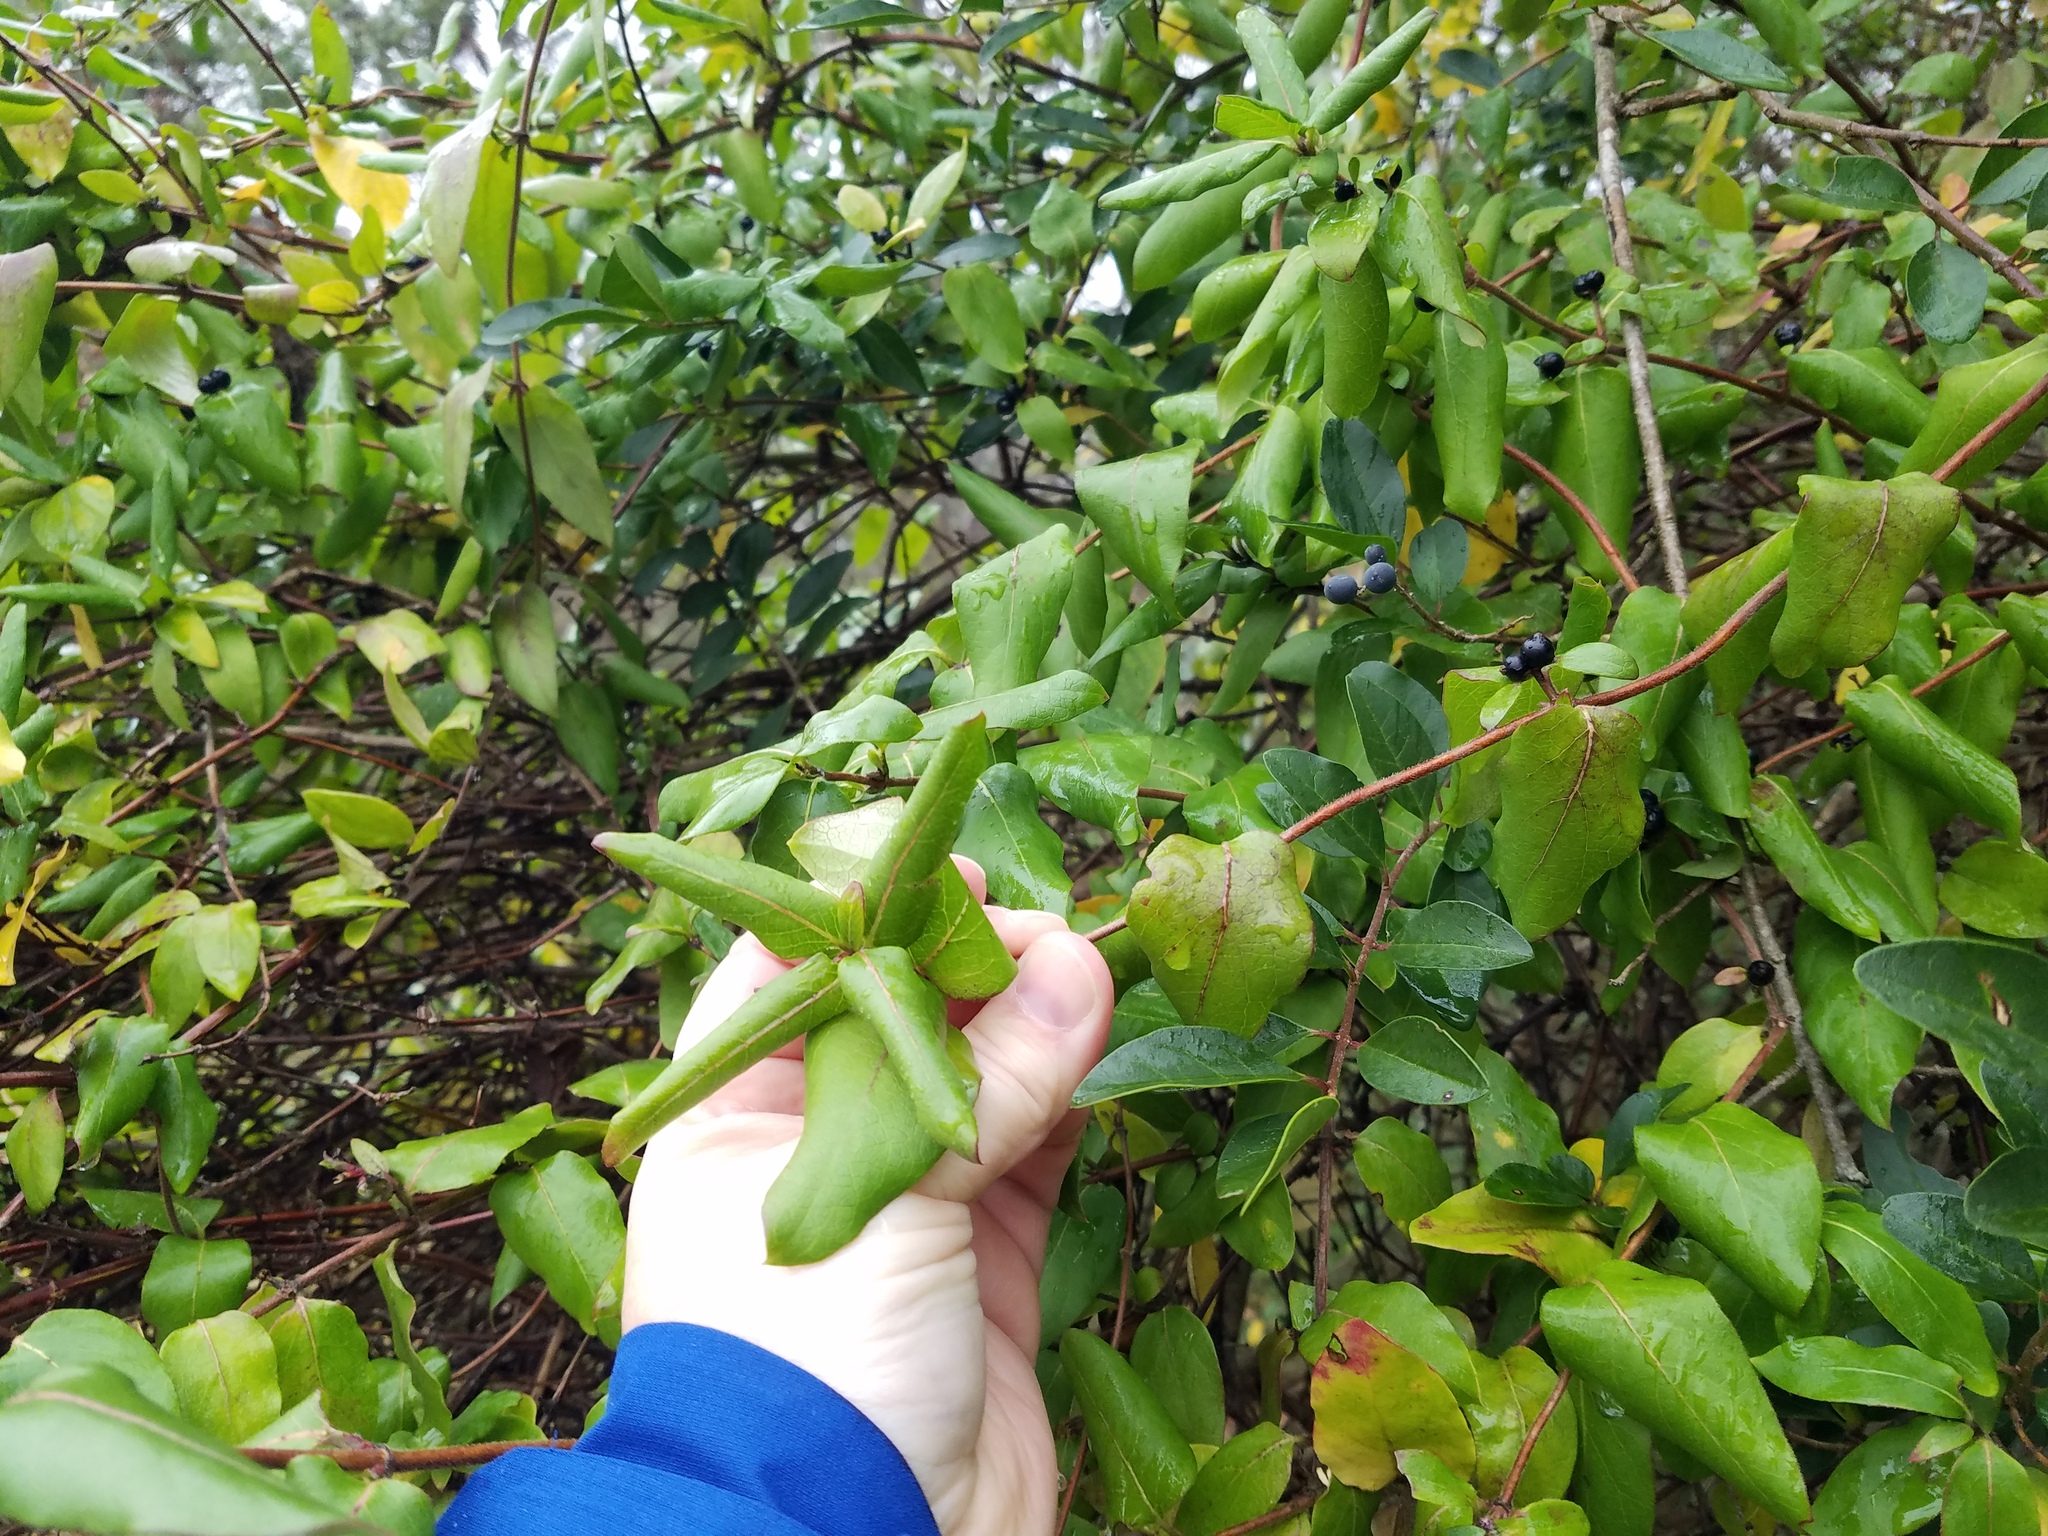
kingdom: Plantae
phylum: Tracheophyta
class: Magnoliopsida
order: Dipsacales
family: Caprifoliaceae
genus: Lonicera
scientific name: Lonicera japonica
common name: Japanese honeysuckle
